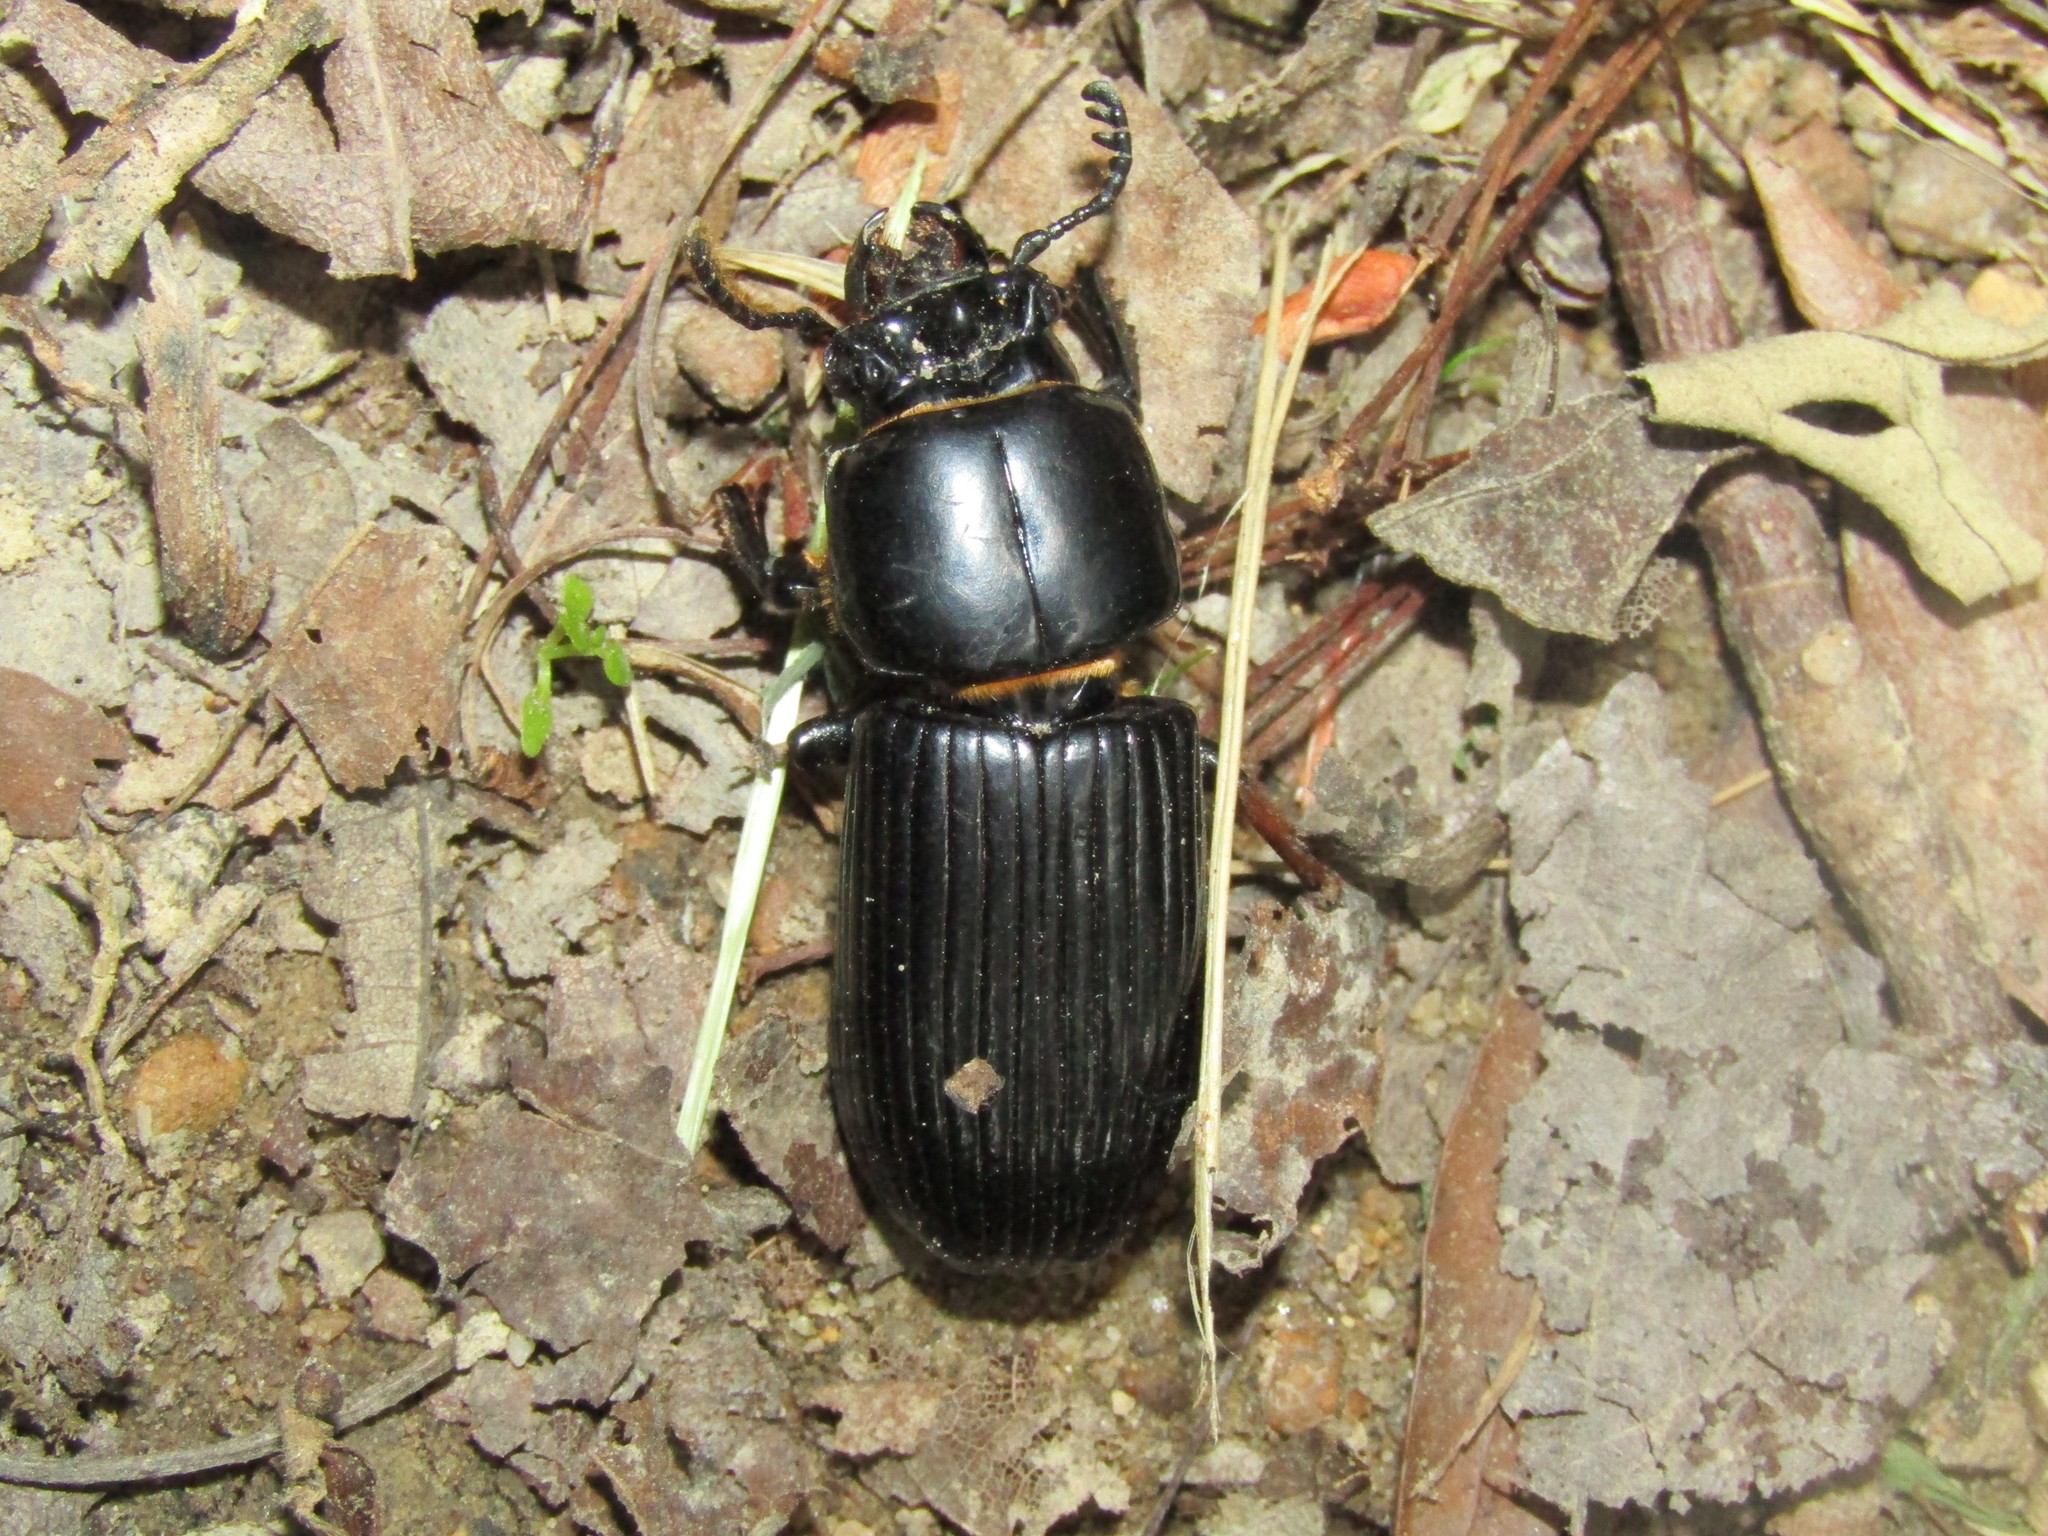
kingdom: Animalia
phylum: Arthropoda
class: Insecta
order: Coleoptera
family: Passalidae
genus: Odontotaenius
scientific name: Odontotaenius disjunctus
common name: Patent leather beetle
